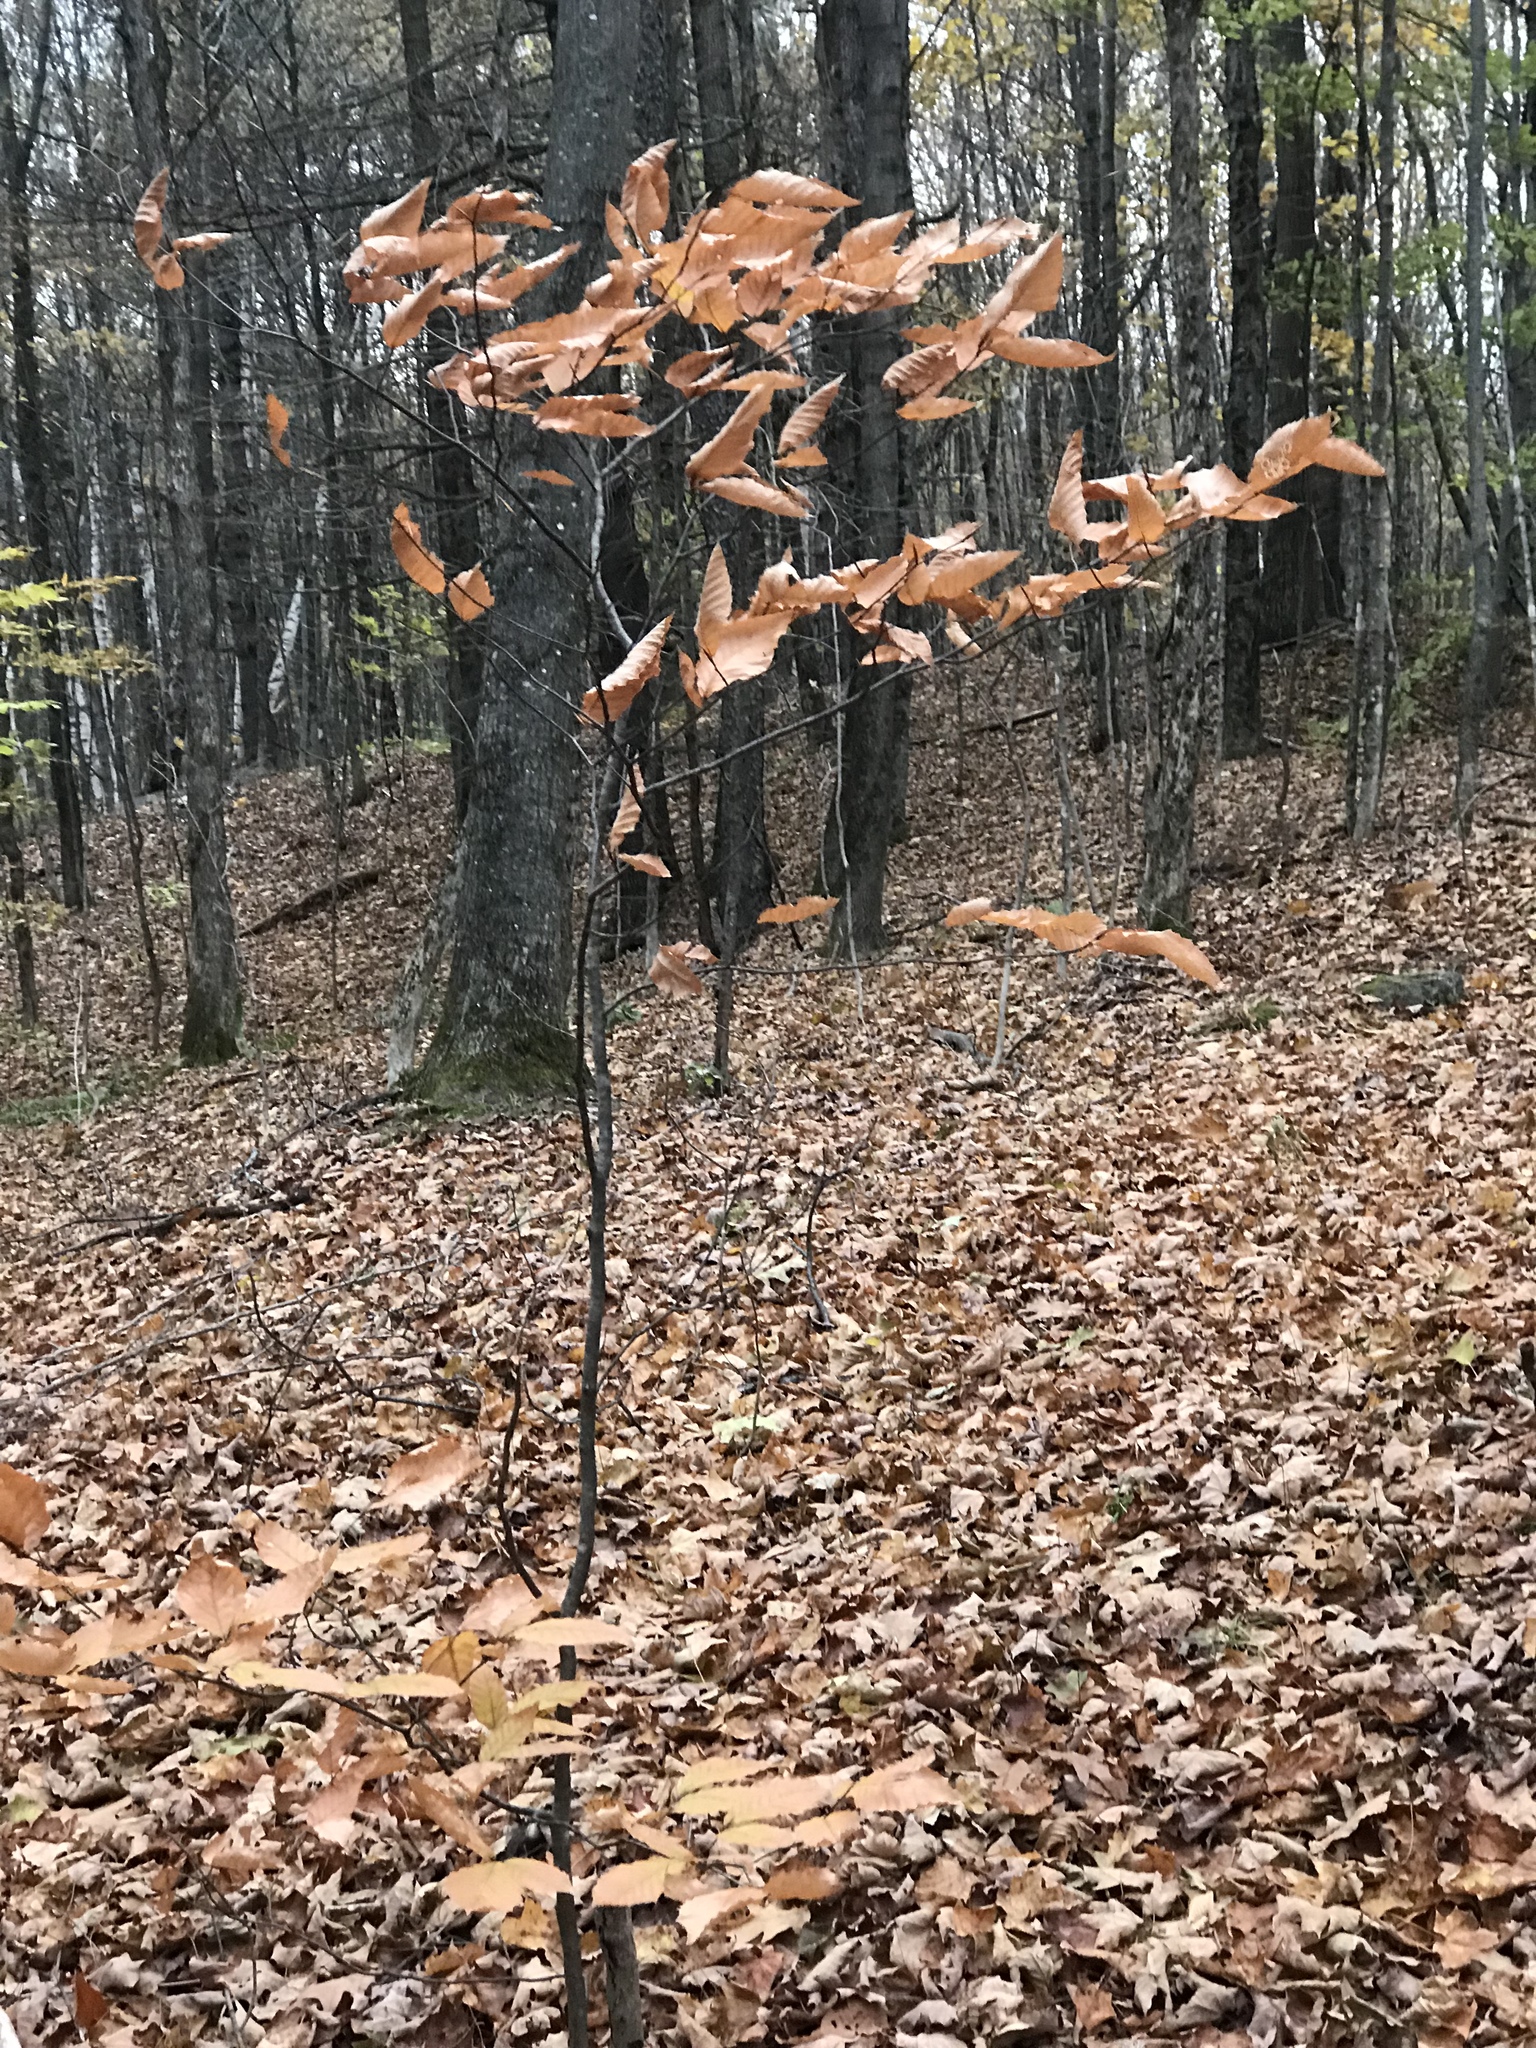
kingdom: Plantae
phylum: Tracheophyta
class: Magnoliopsida
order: Fagales
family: Fagaceae
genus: Fagus
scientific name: Fagus grandifolia
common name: American beech
